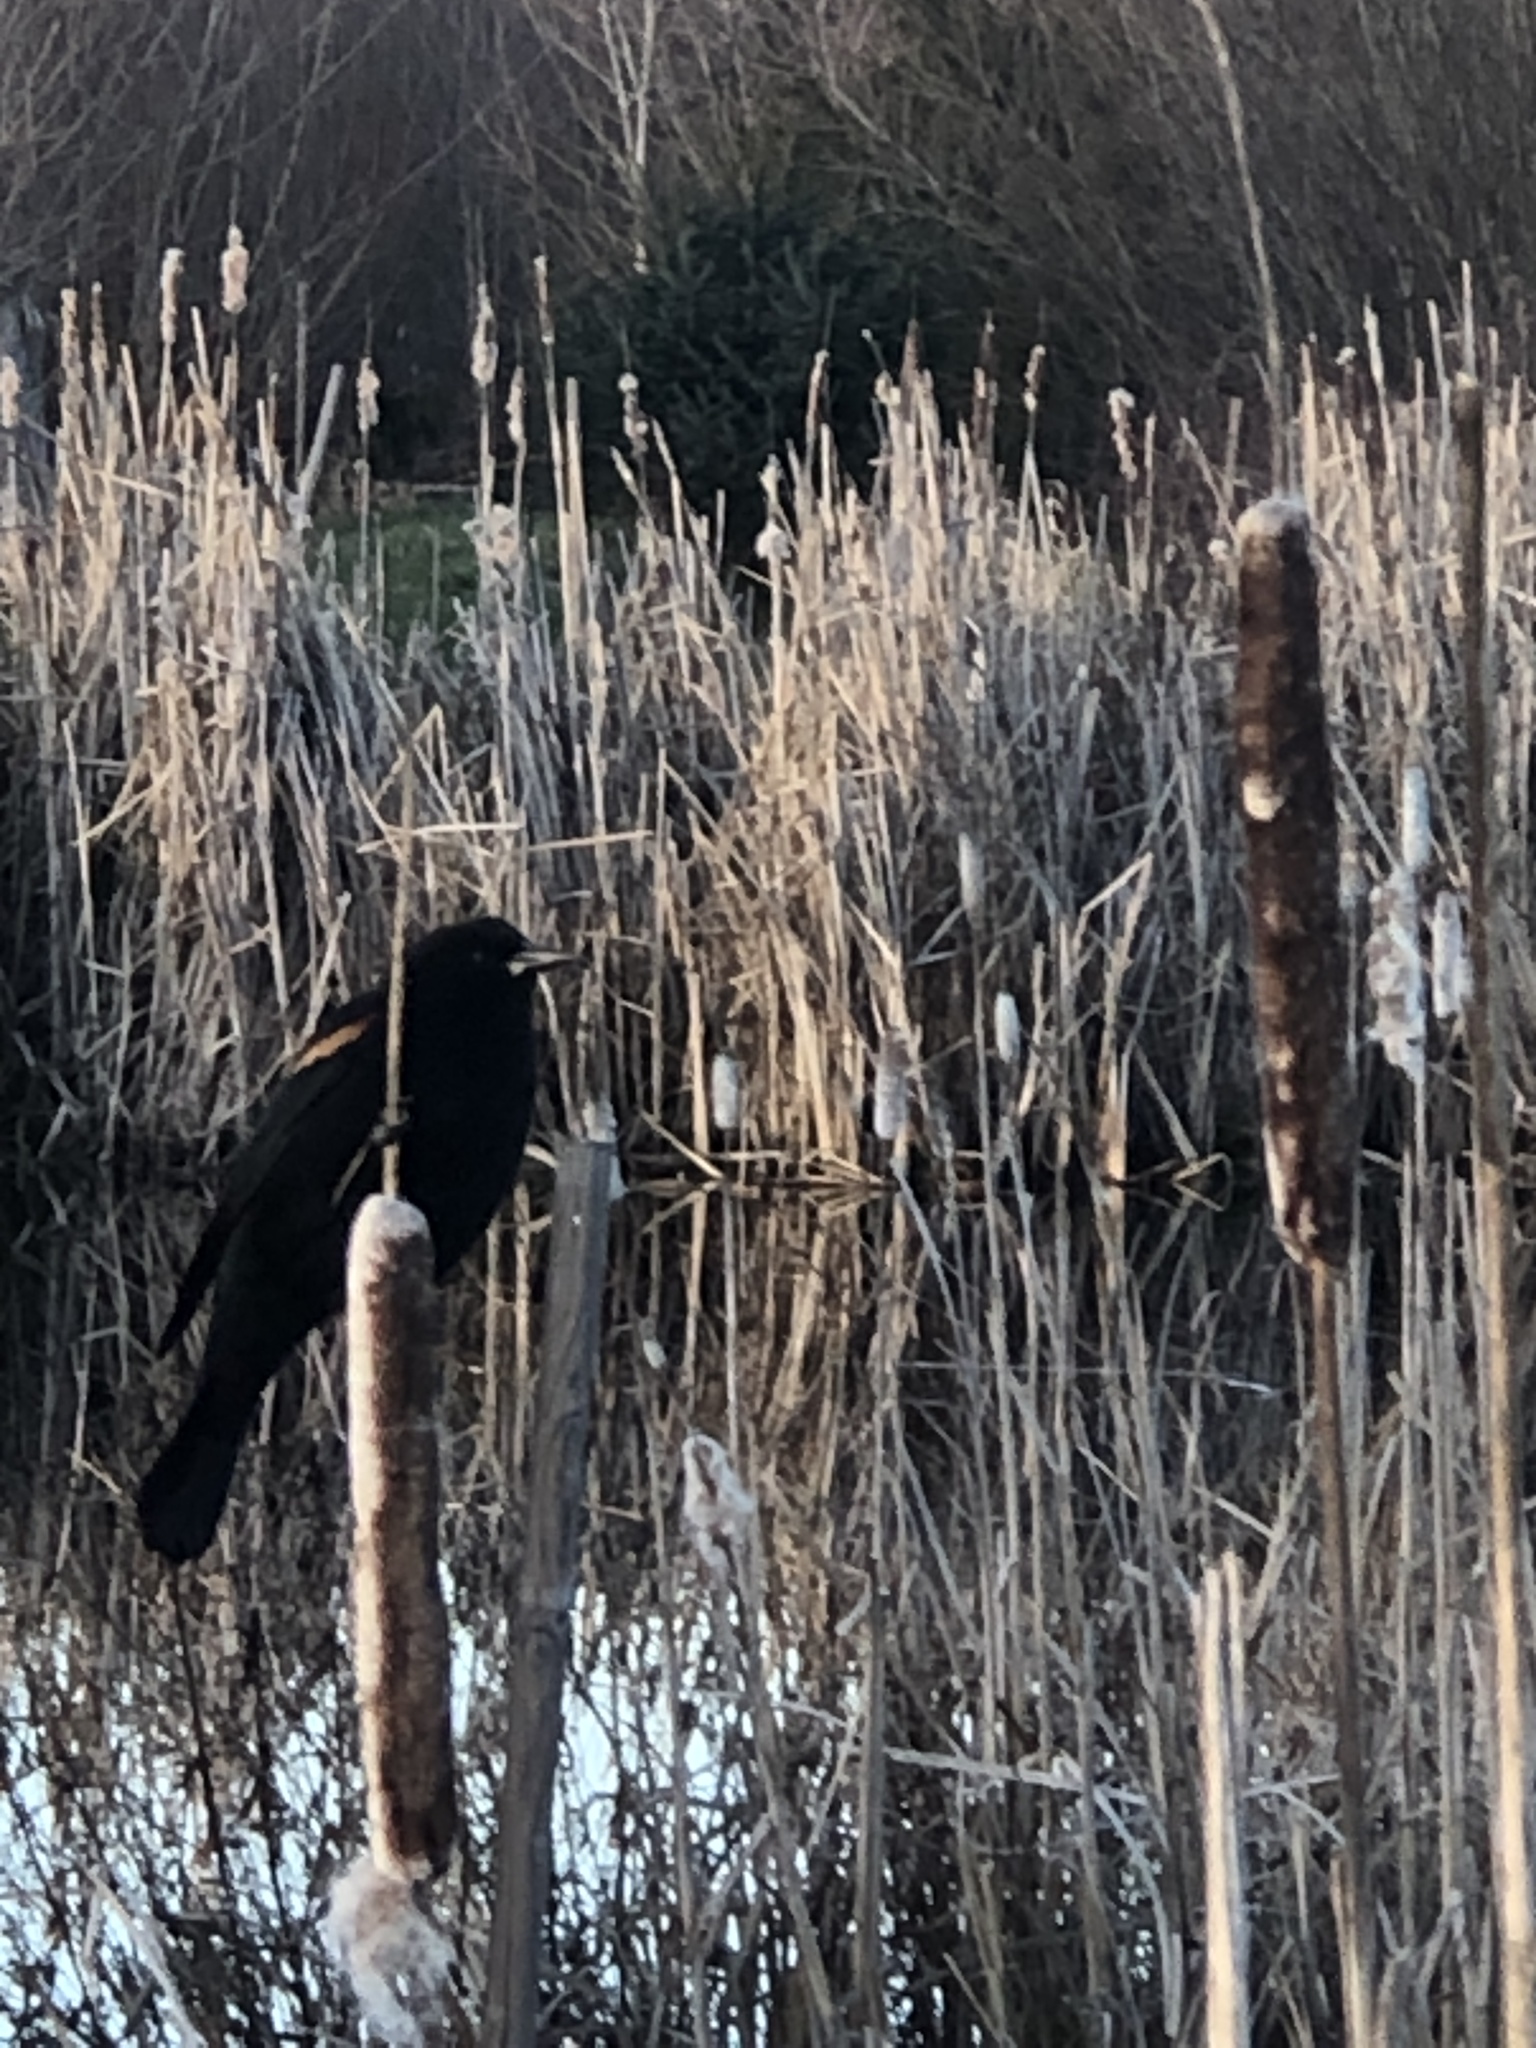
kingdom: Animalia
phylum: Chordata
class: Aves
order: Passeriformes
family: Icteridae
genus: Agelaius
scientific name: Agelaius phoeniceus
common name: Red-winged blackbird
